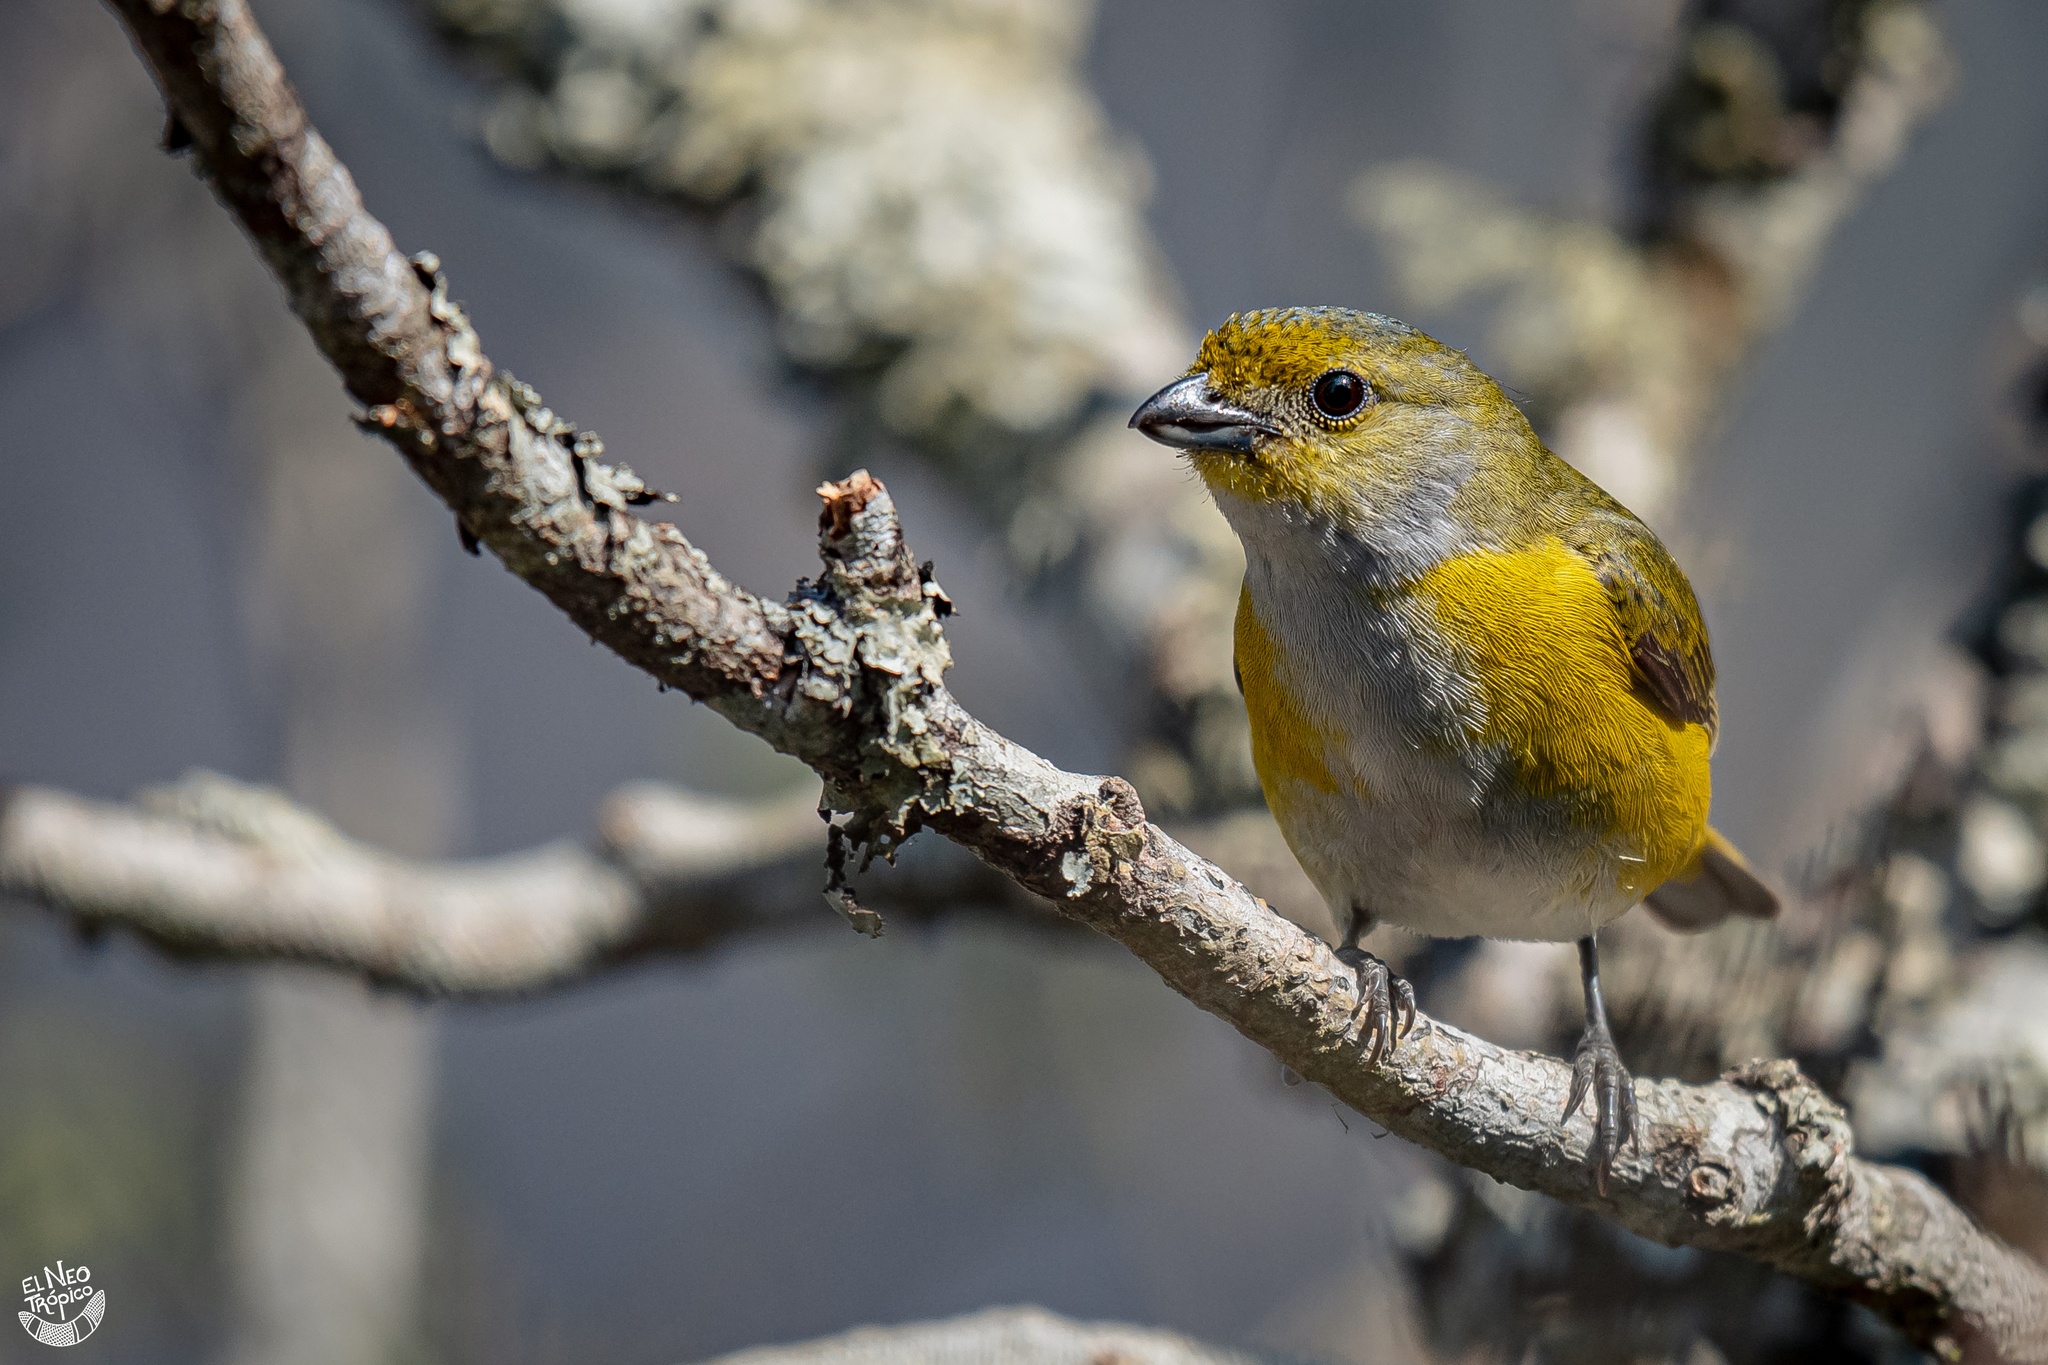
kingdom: Animalia
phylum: Chordata
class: Aves
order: Passeriformes
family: Fringillidae
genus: Euphonia
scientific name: Euphonia hirundinacea
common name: Yellow-throated euphonia
